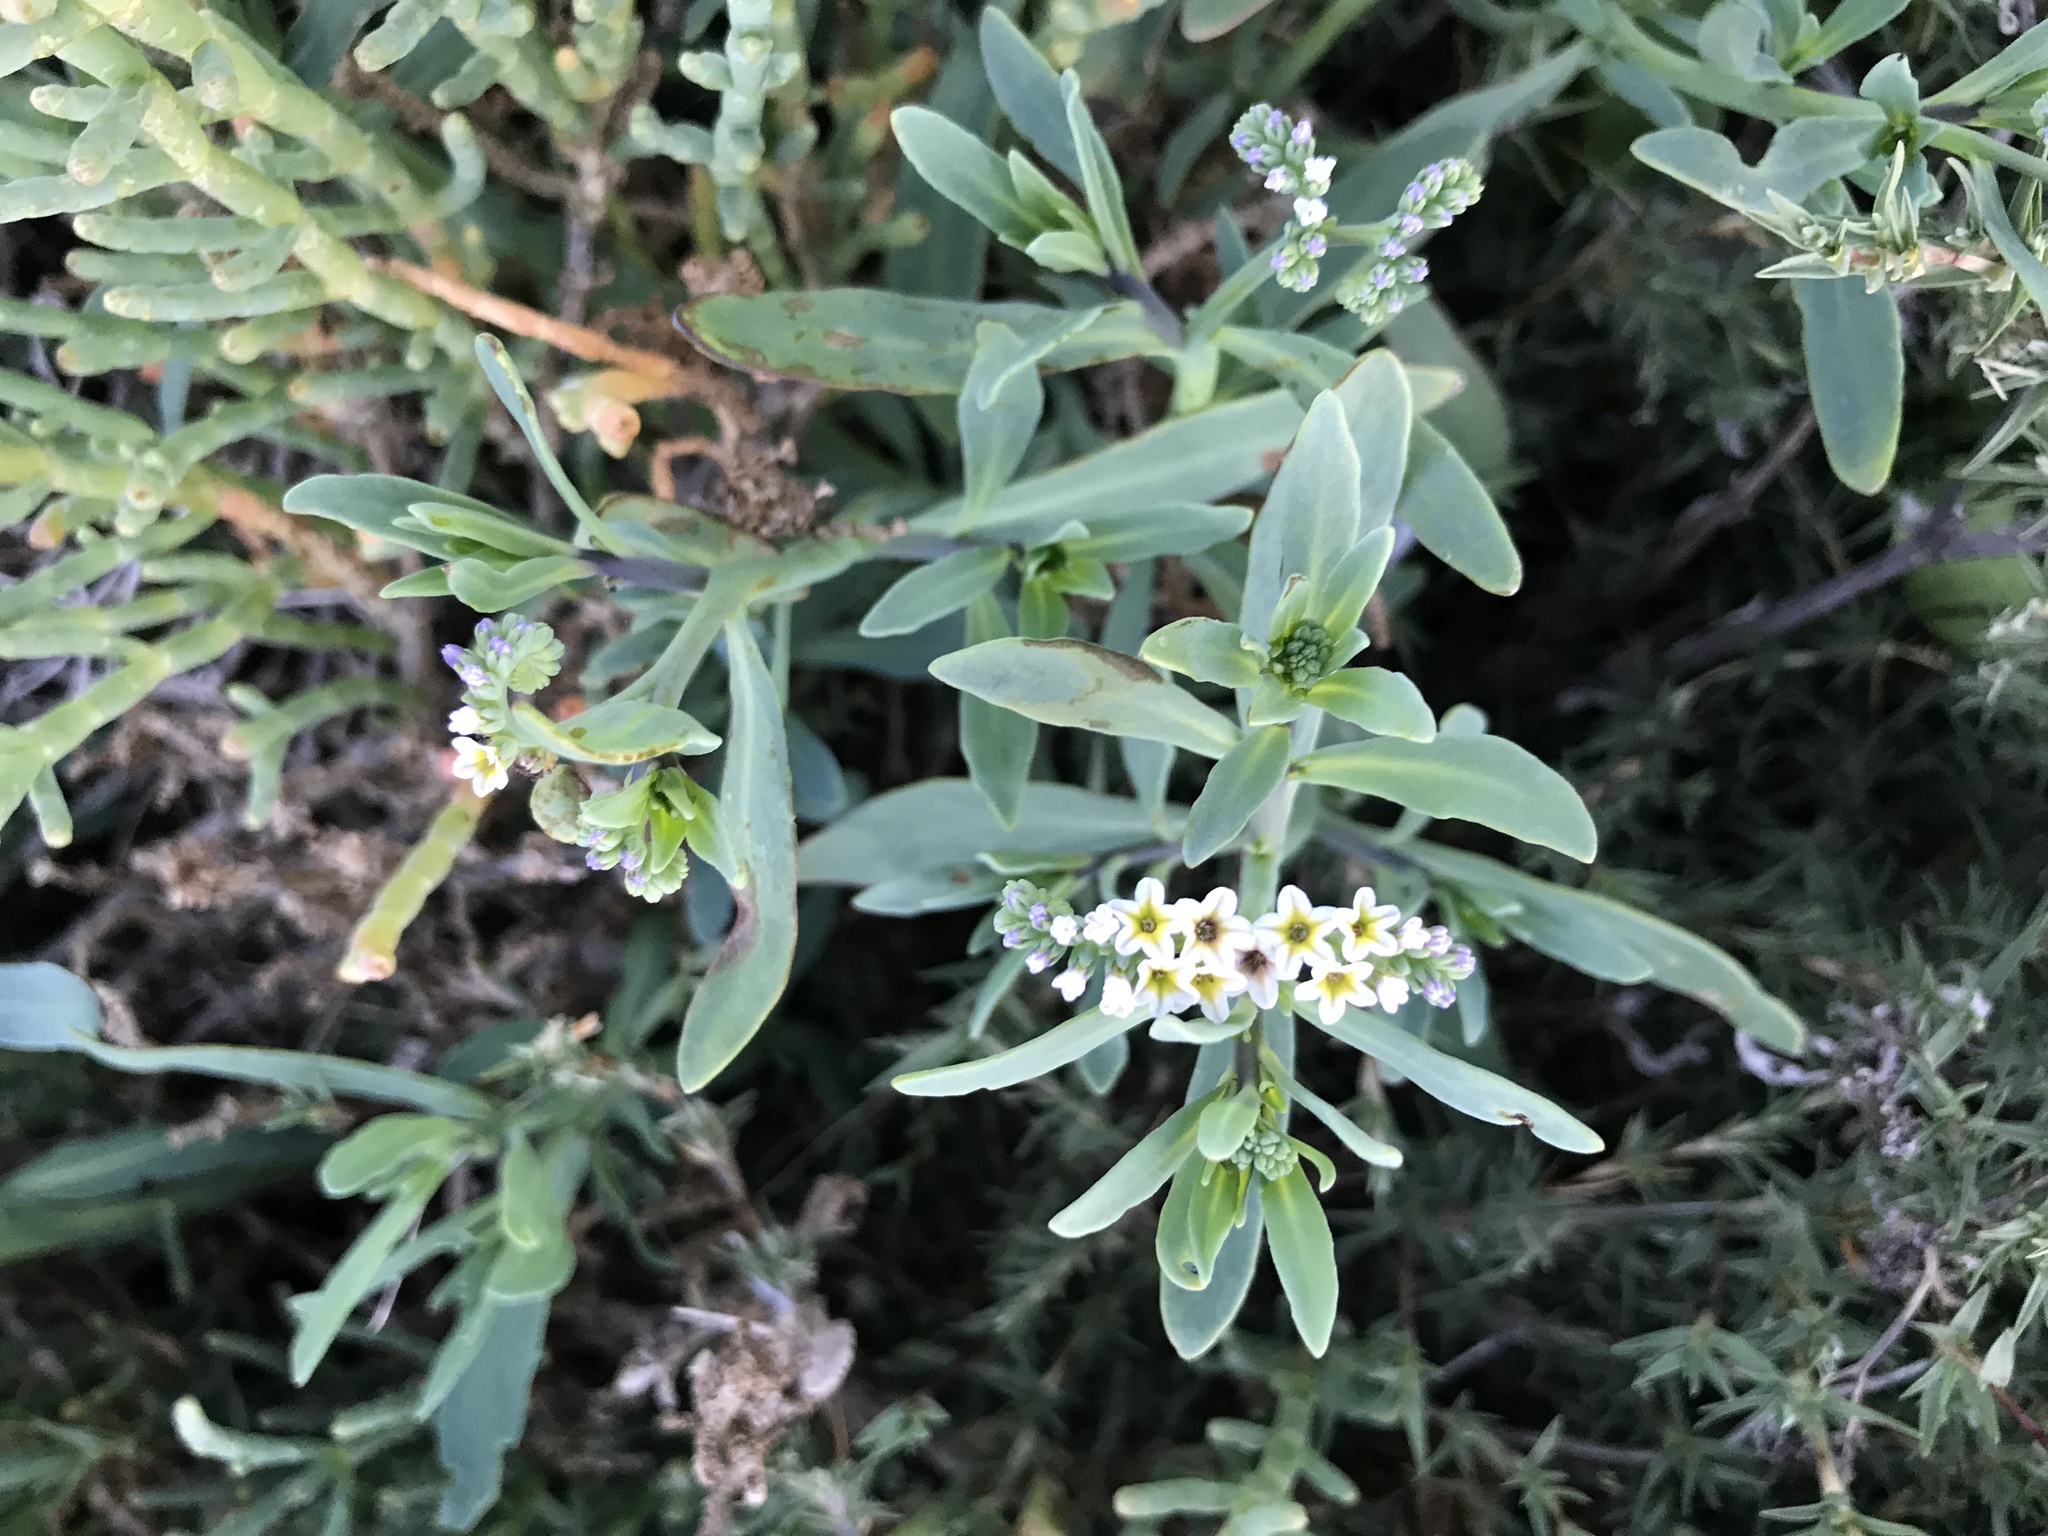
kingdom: Plantae
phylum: Tracheophyta
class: Magnoliopsida
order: Boraginales
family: Heliotropiaceae
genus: Heliotropium
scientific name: Heliotropium curassavicum
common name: Seaside heliotrope
